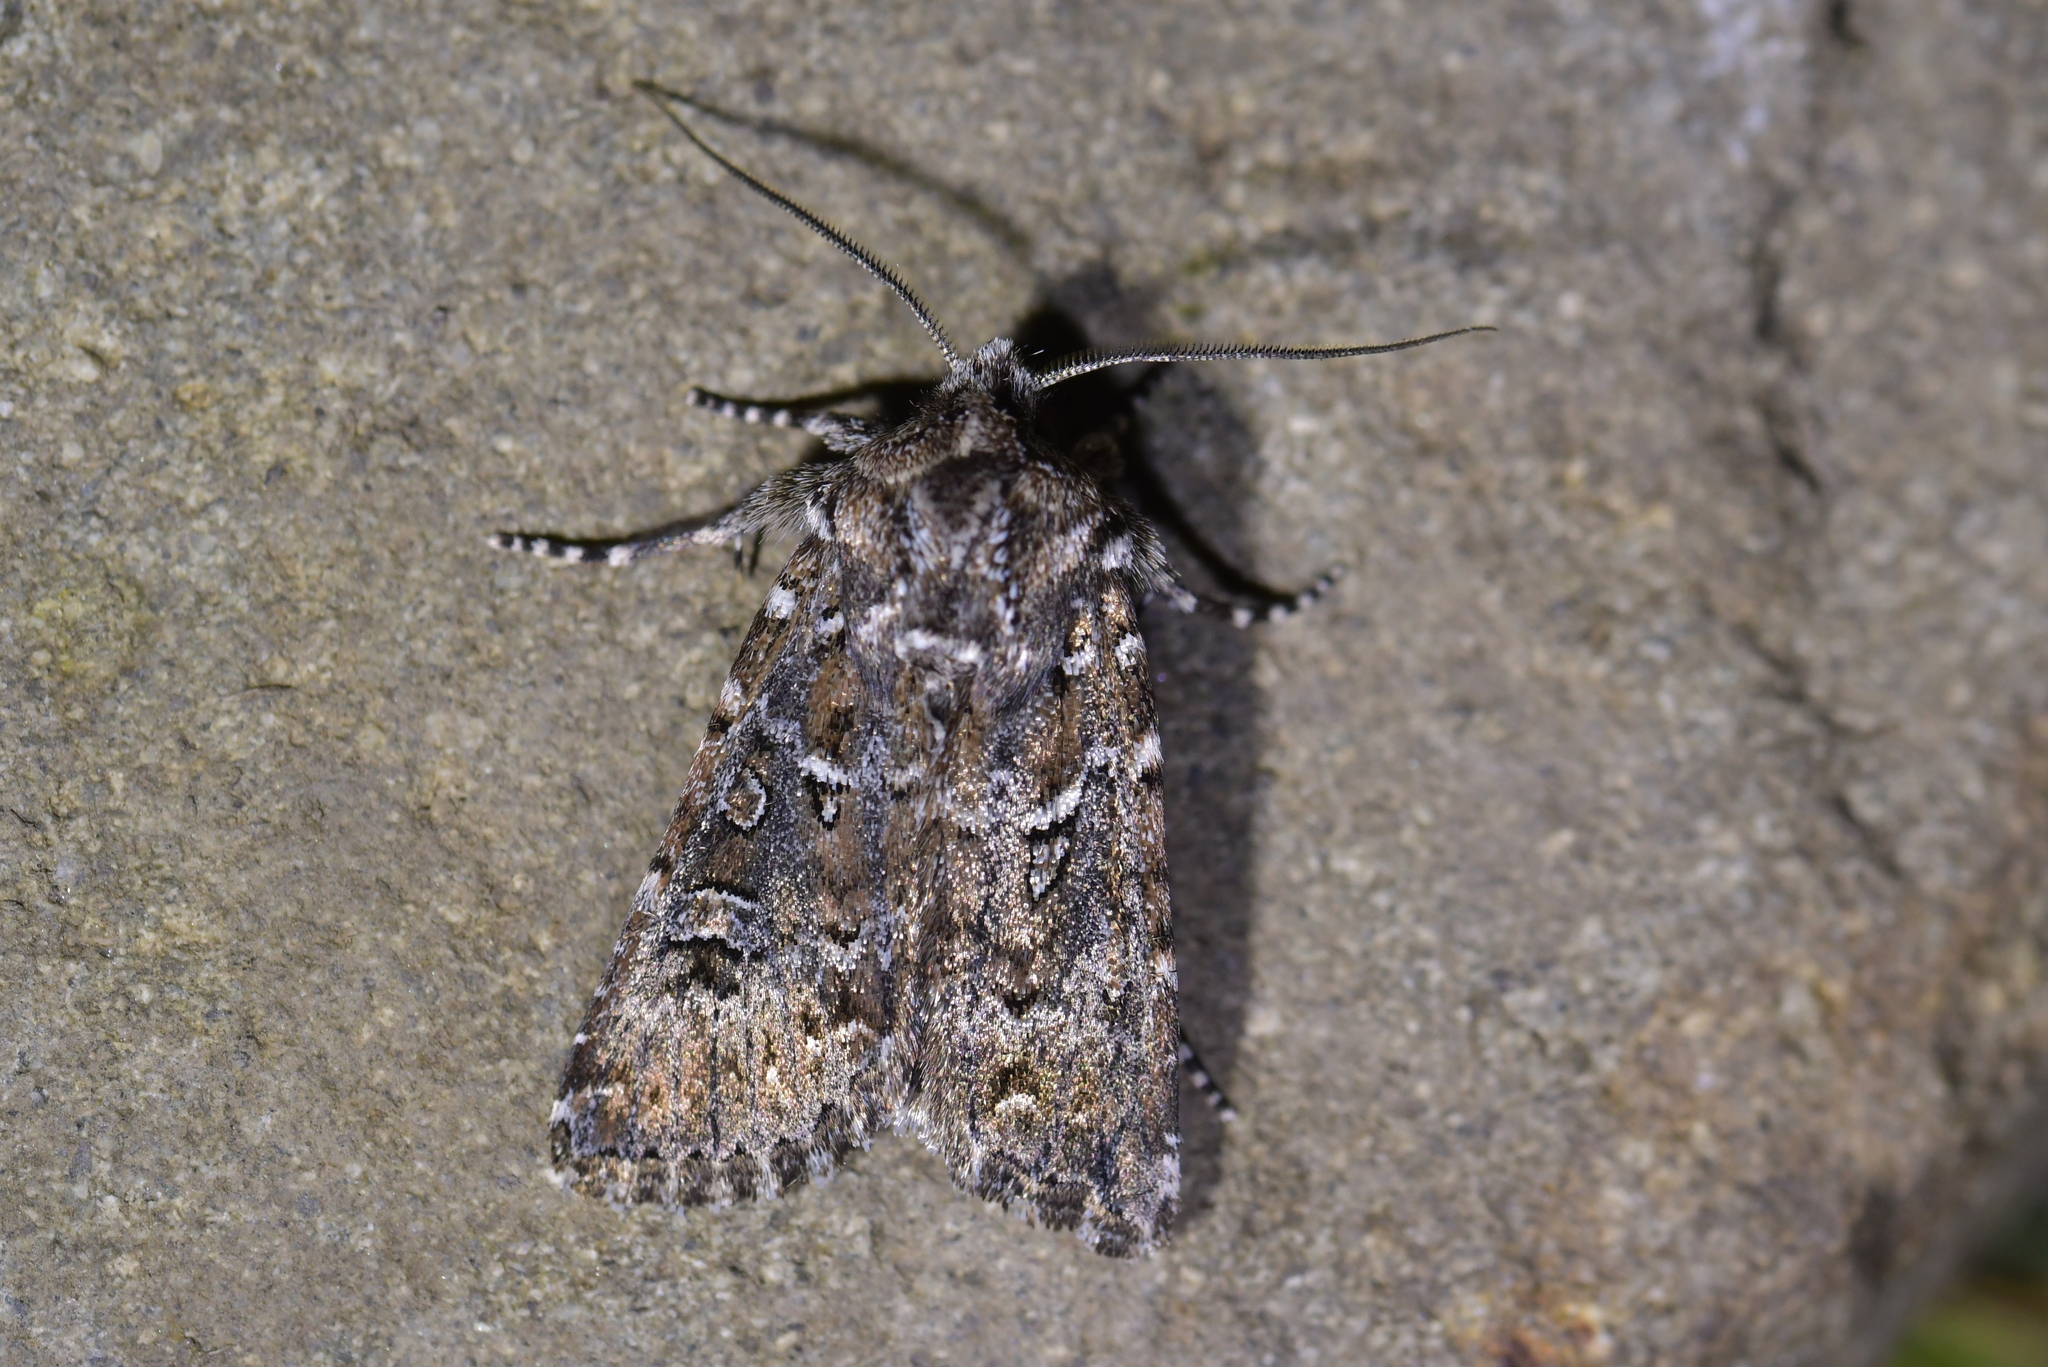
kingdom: Animalia
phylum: Arthropoda
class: Insecta
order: Lepidoptera
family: Noctuidae
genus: Ichneutica
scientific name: Ichneutica lithias
